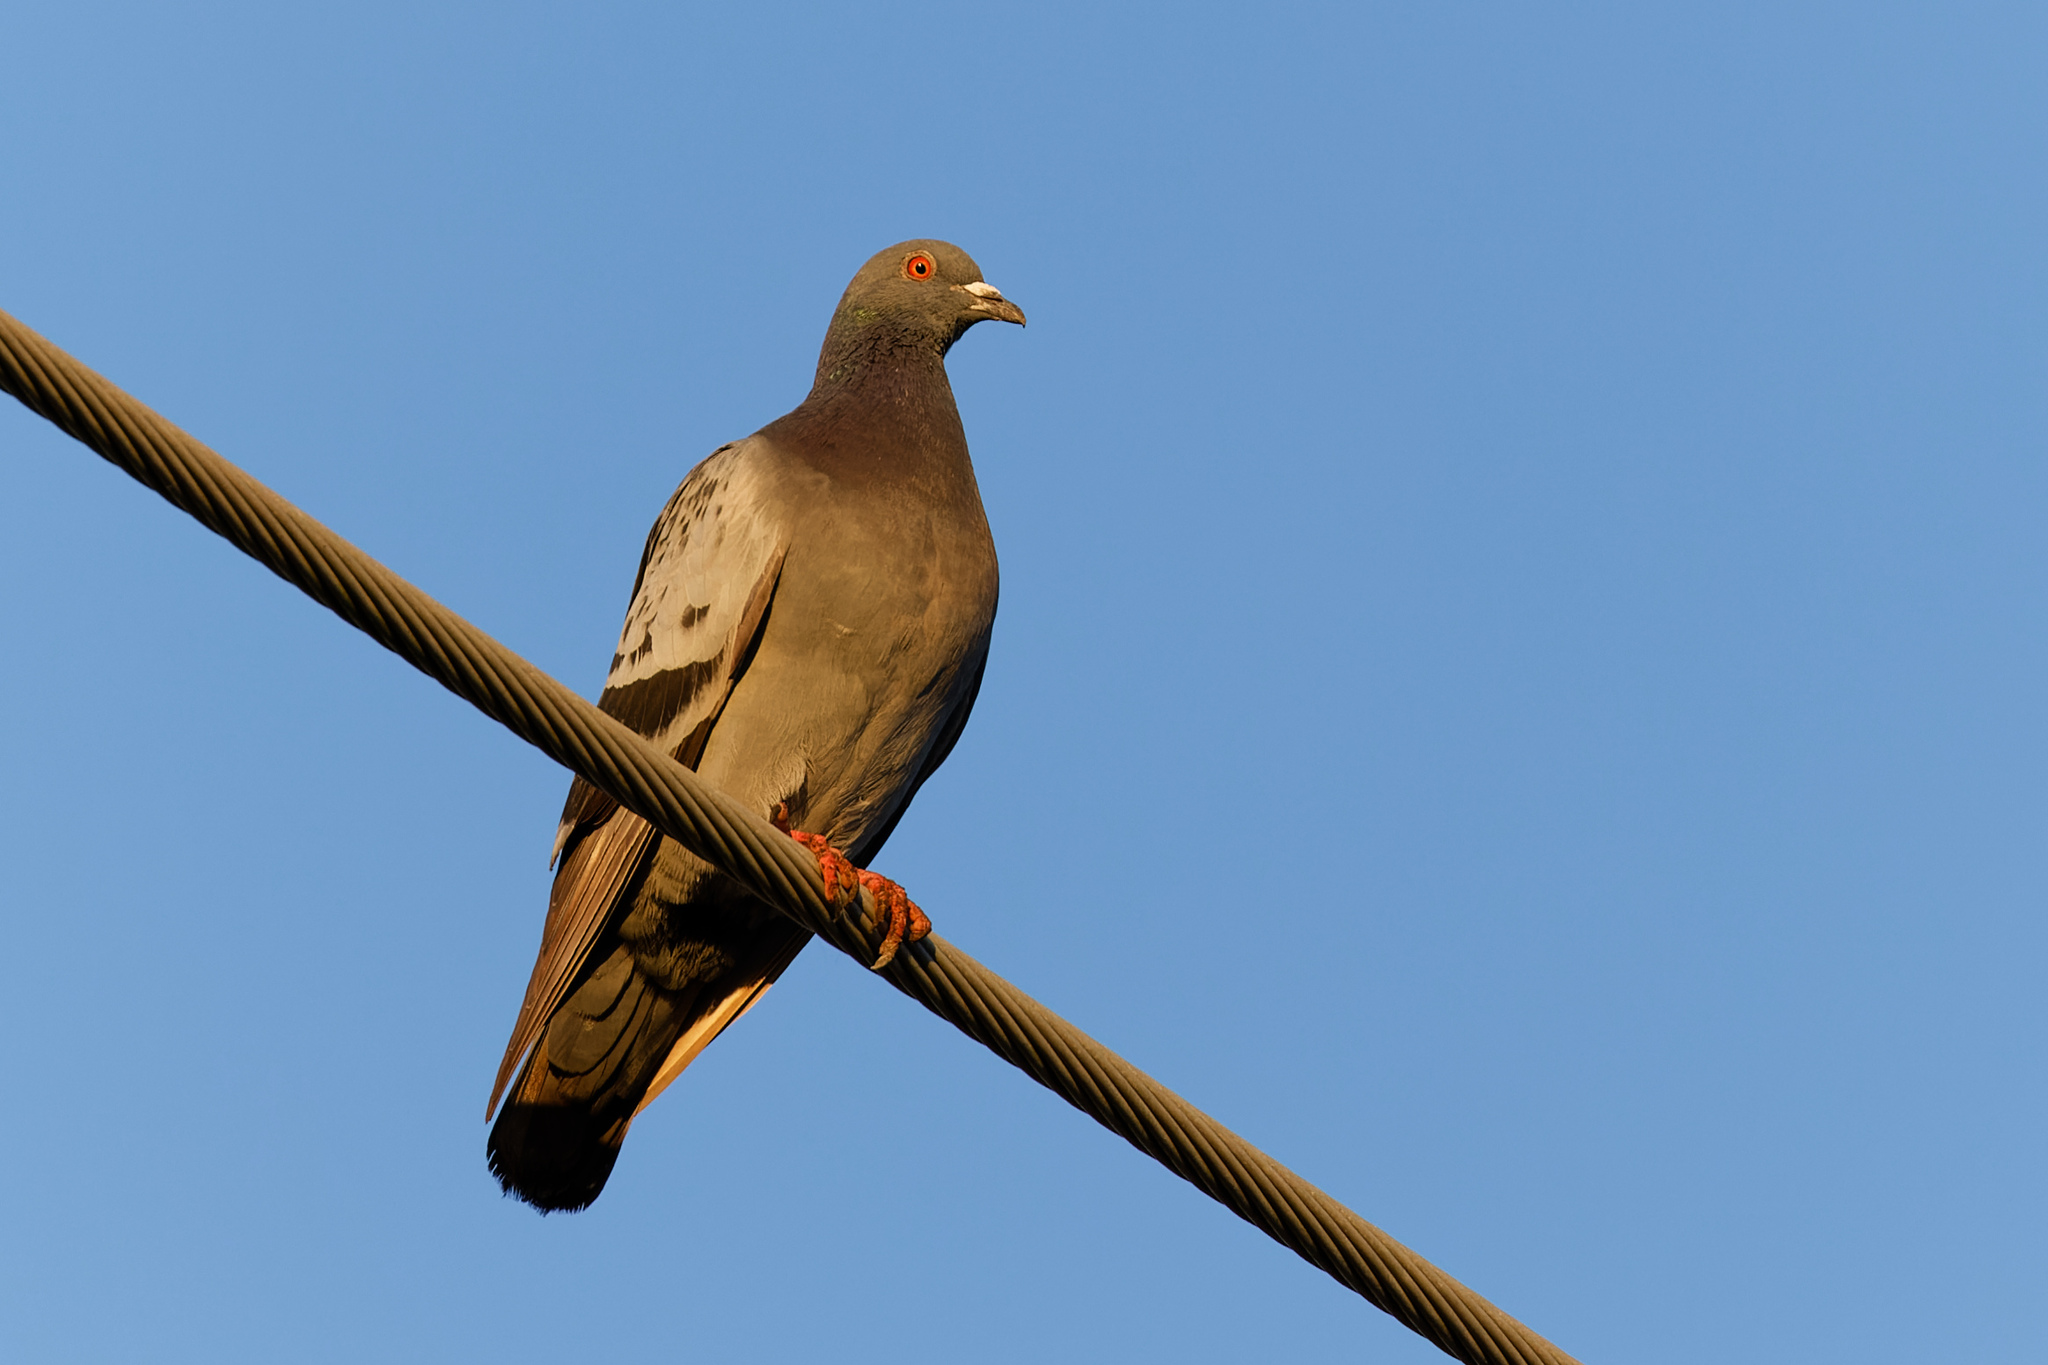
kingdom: Animalia
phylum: Chordata
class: Aves
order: Columbiformes
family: Columbidae
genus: Columba
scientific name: Columba livia
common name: Rock pigeon
